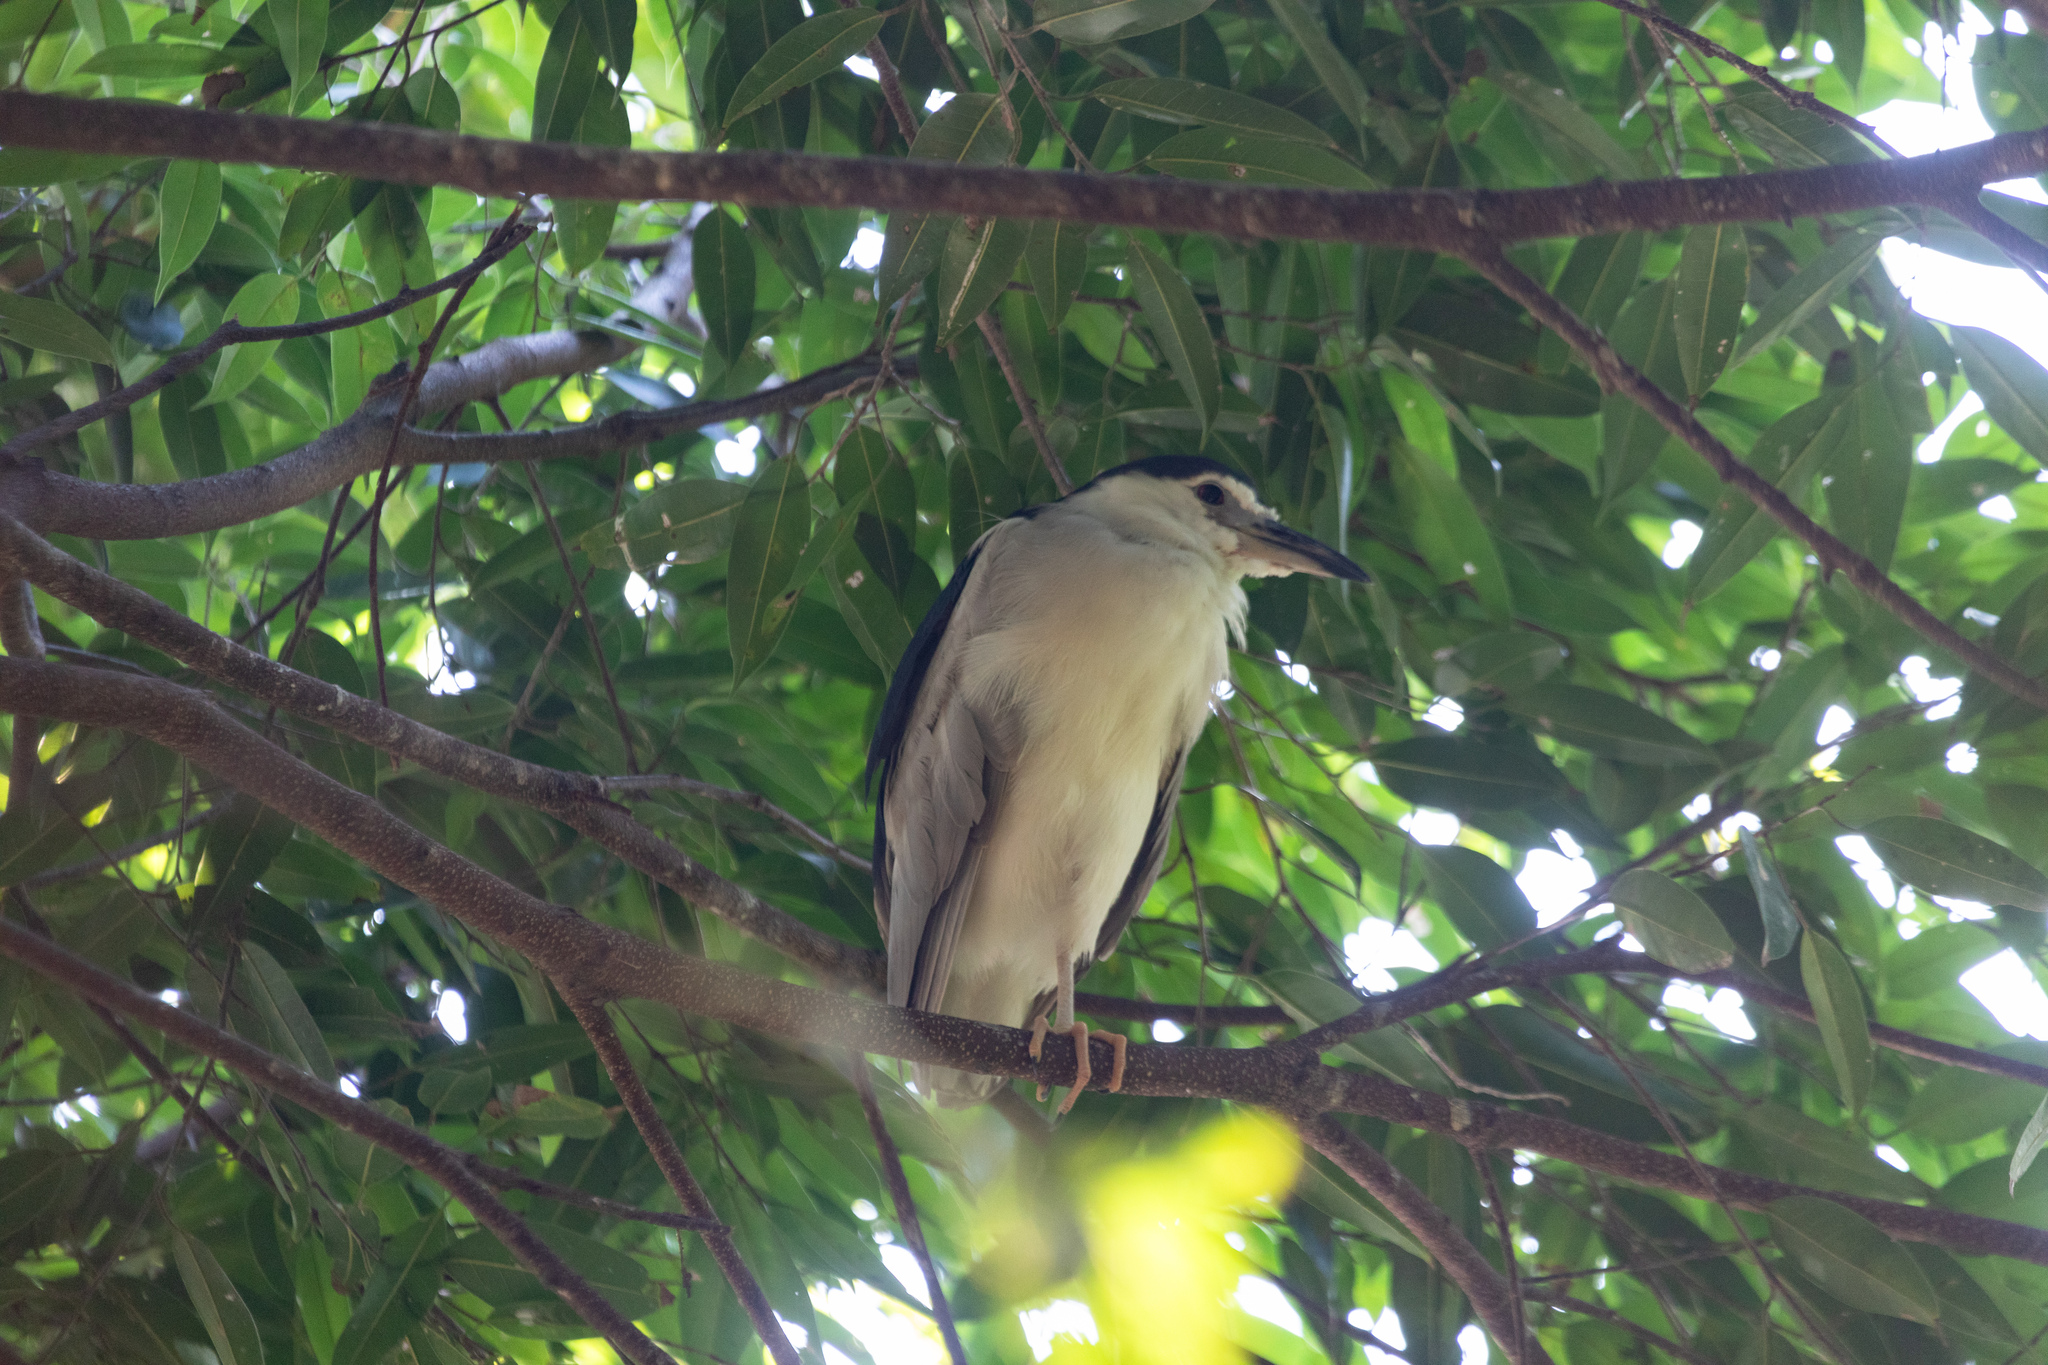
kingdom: Animalia
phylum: Chordata
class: Aves
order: Pelecaniformes
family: Ardeidae
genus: Nycticorax
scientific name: Nycticorax nycticorax
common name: Black-crowned night heron
